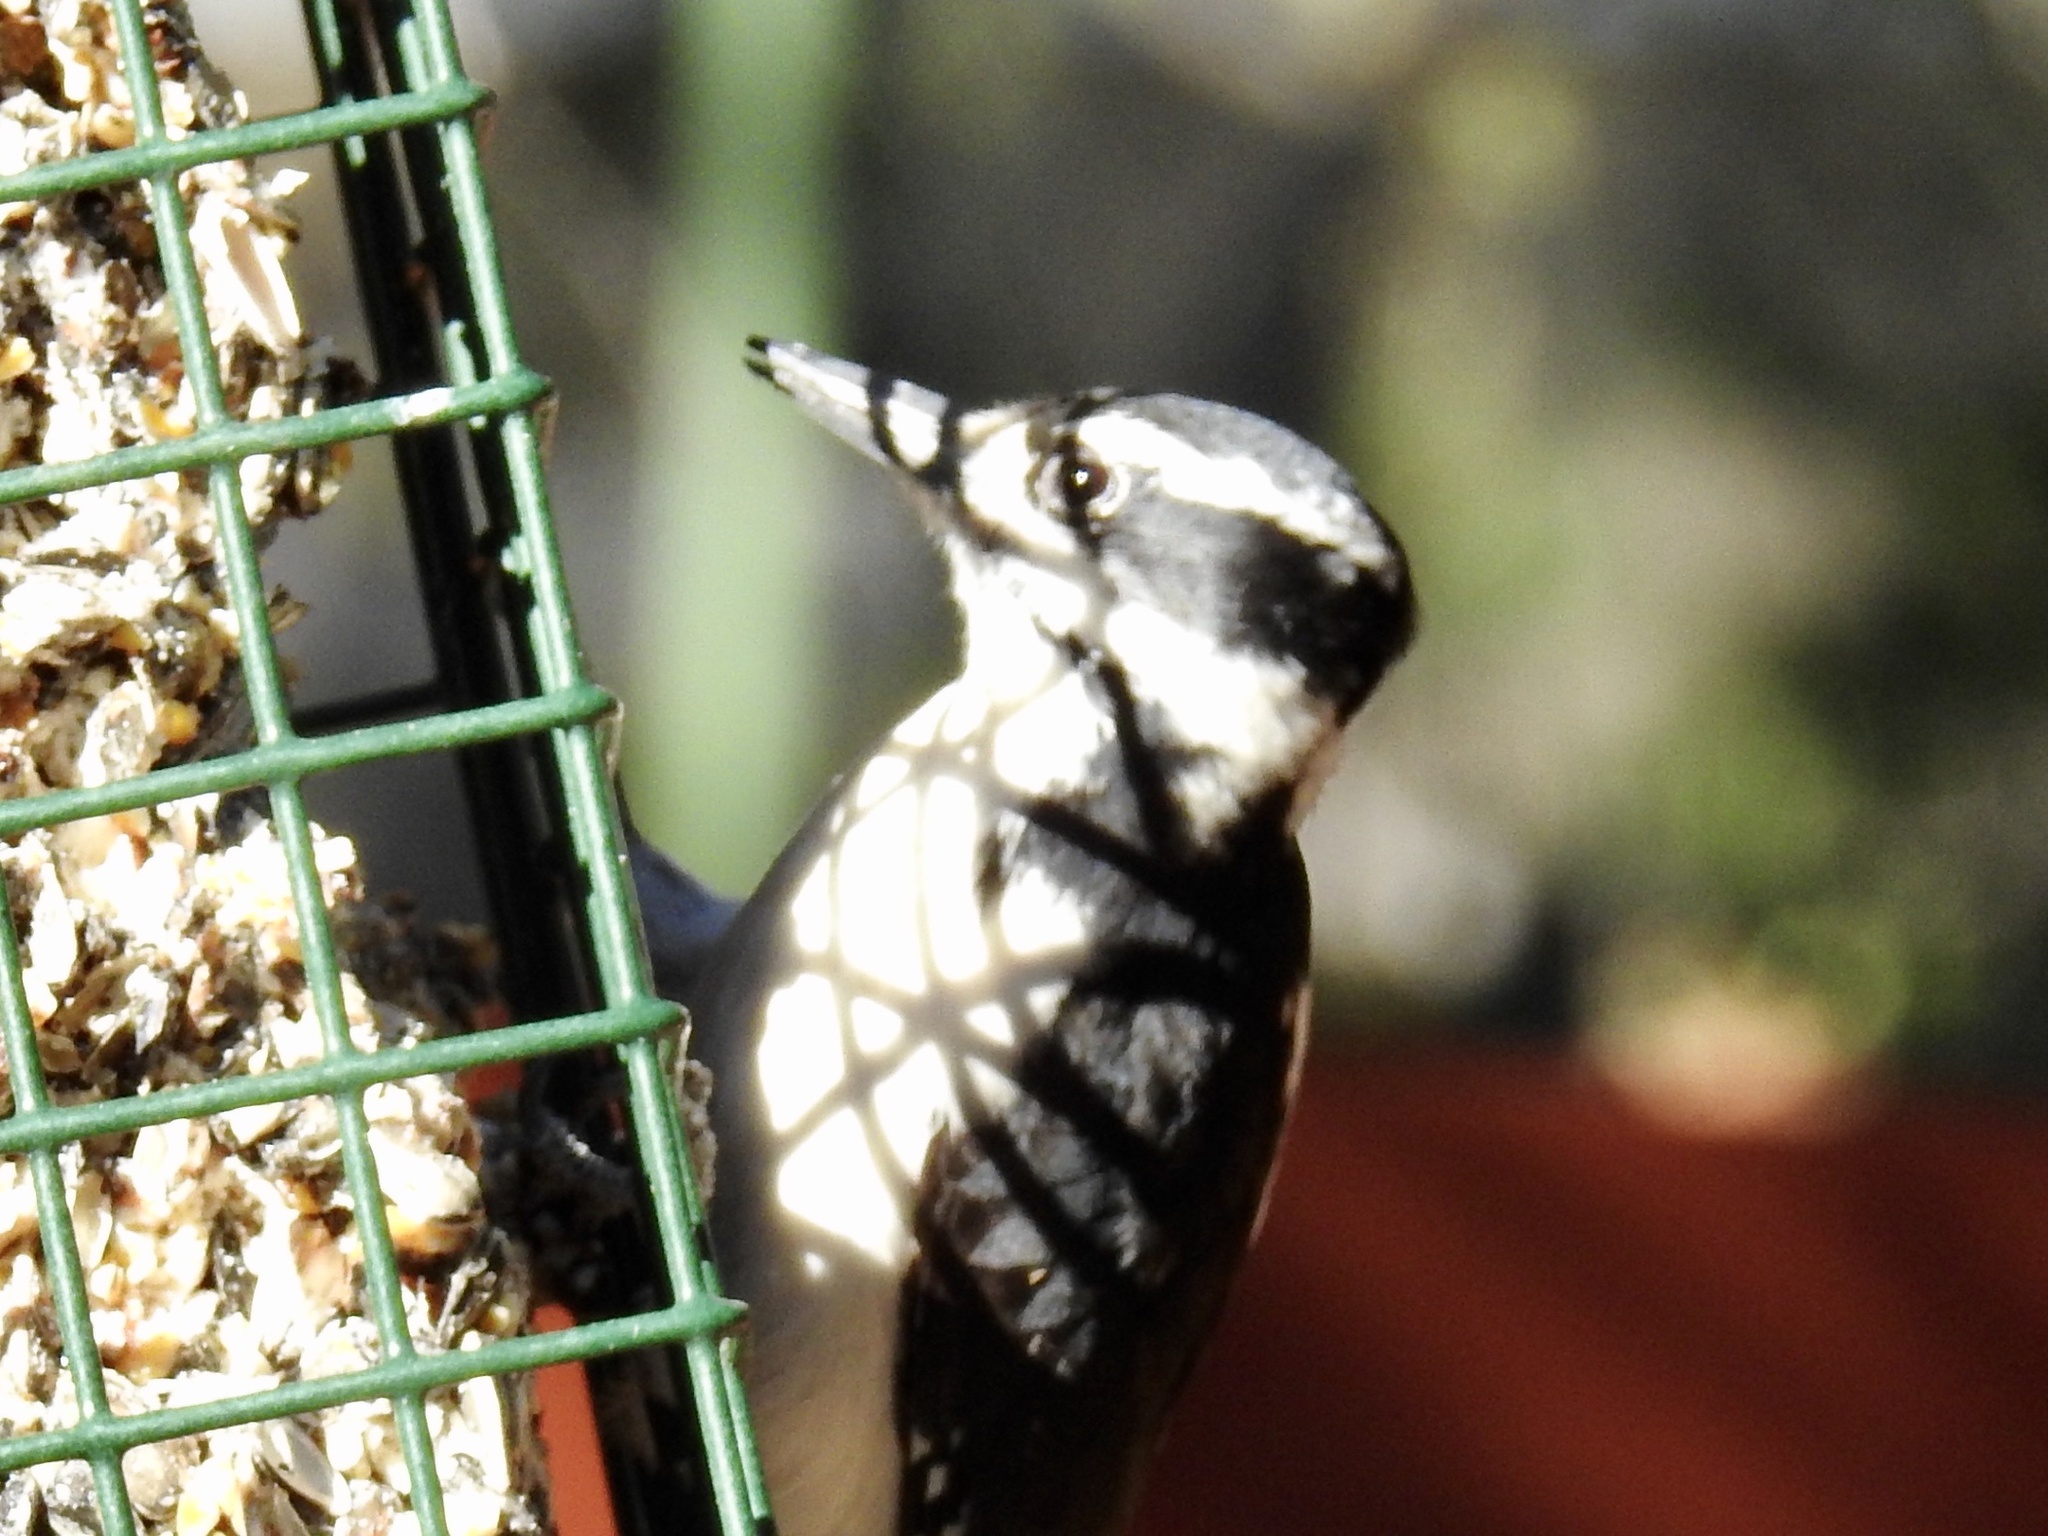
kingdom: Animalia
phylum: Chordata
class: Aves
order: Piciformes
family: Picidae
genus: Dryobates
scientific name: Dryobates pubescens
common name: Downy woodpecker
